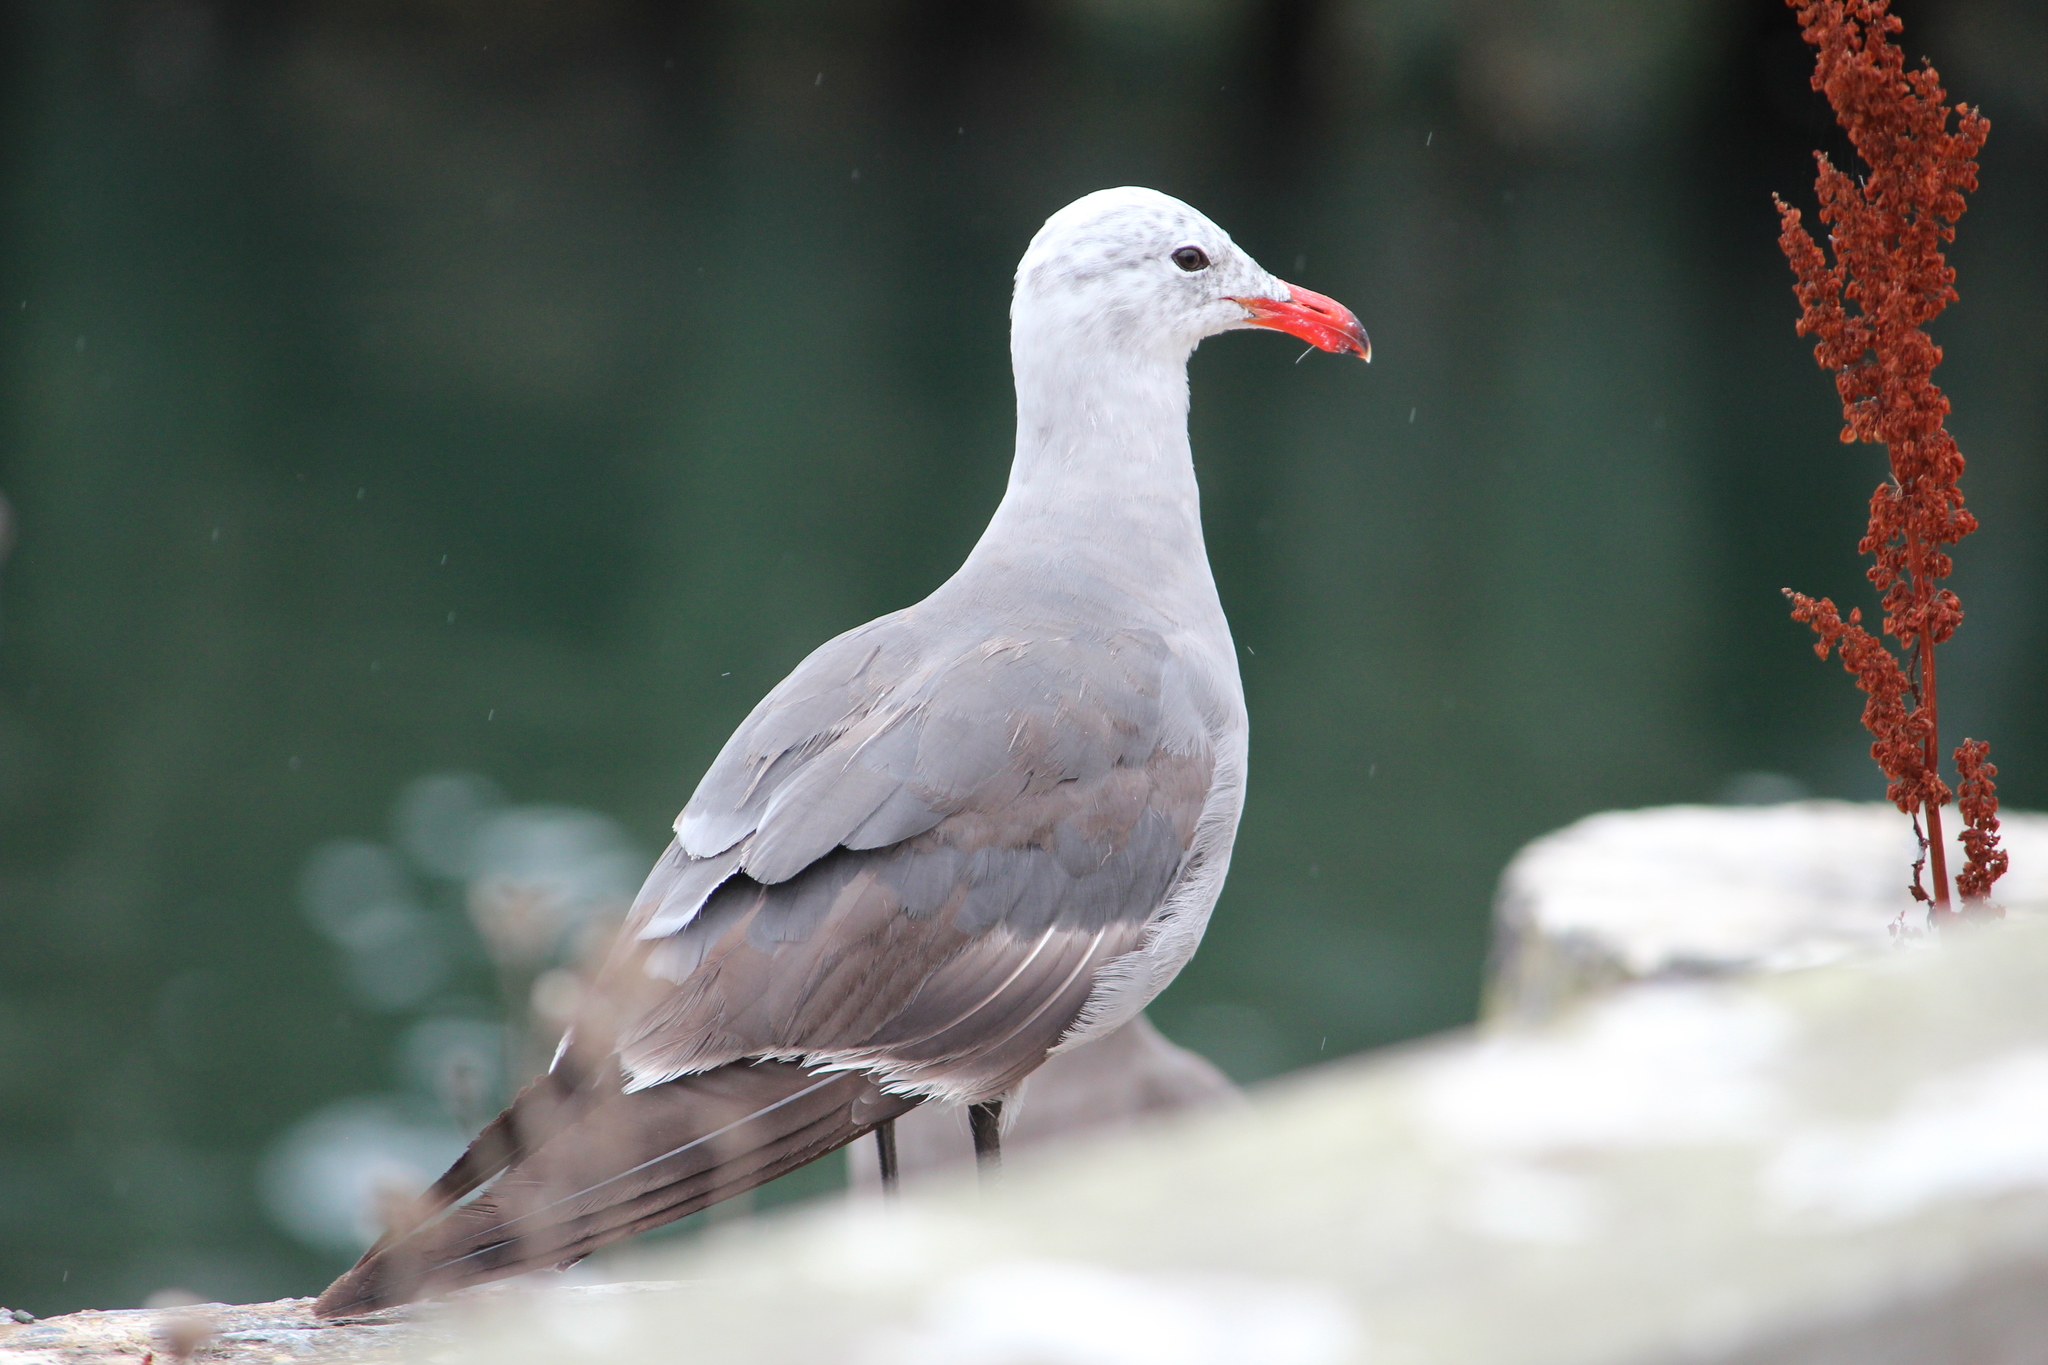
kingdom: Animalia
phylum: Chordata
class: Aves
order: Charadriiformes
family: Laridae
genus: Larus
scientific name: Larus heermanni
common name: Heermann's gull
